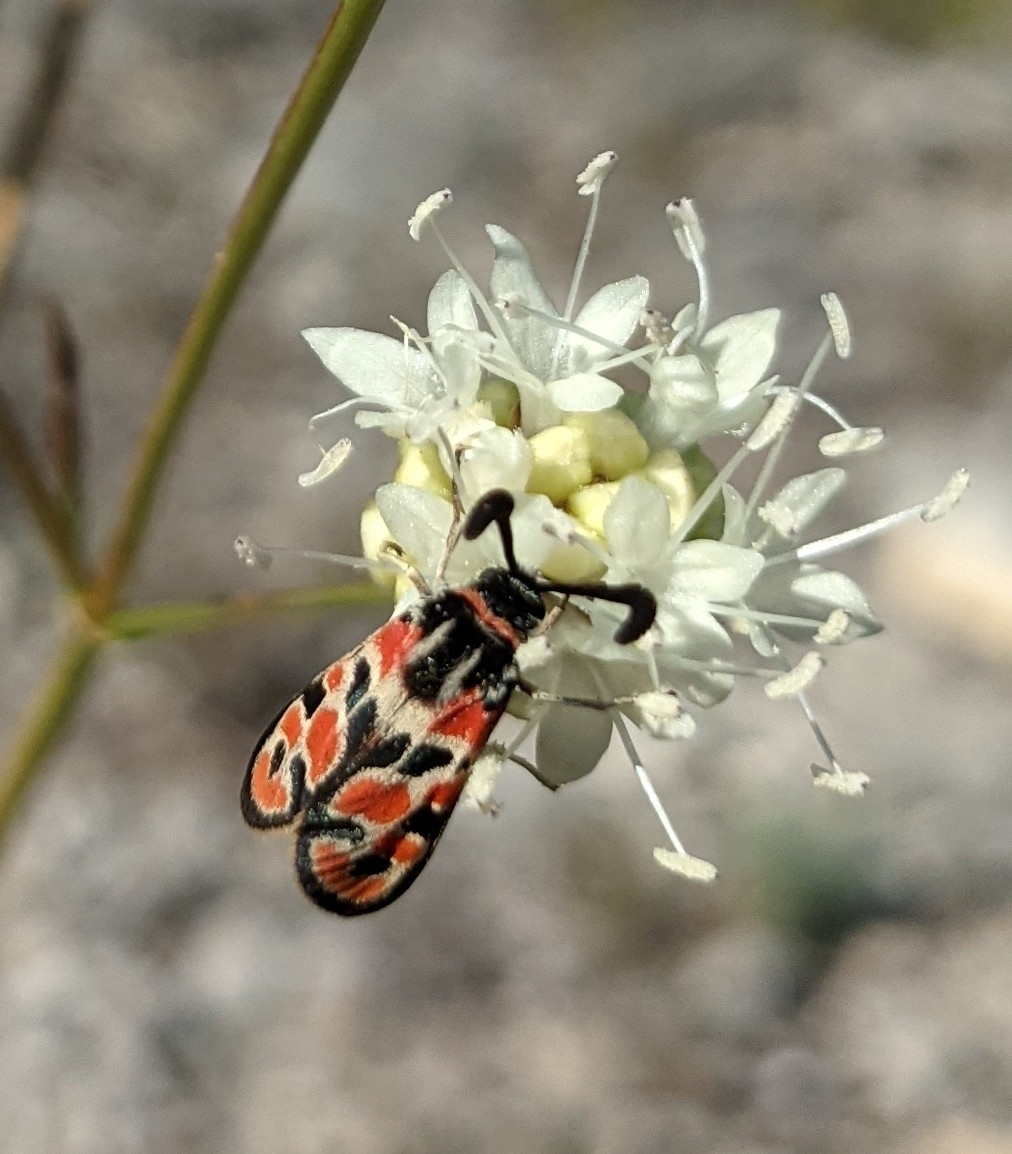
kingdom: Plantae
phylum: Tracheophyta
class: Magnoliopsida
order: Dipsacales
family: Caprifoliaceae
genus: Cephalaria
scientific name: Cephalaria leucantha
